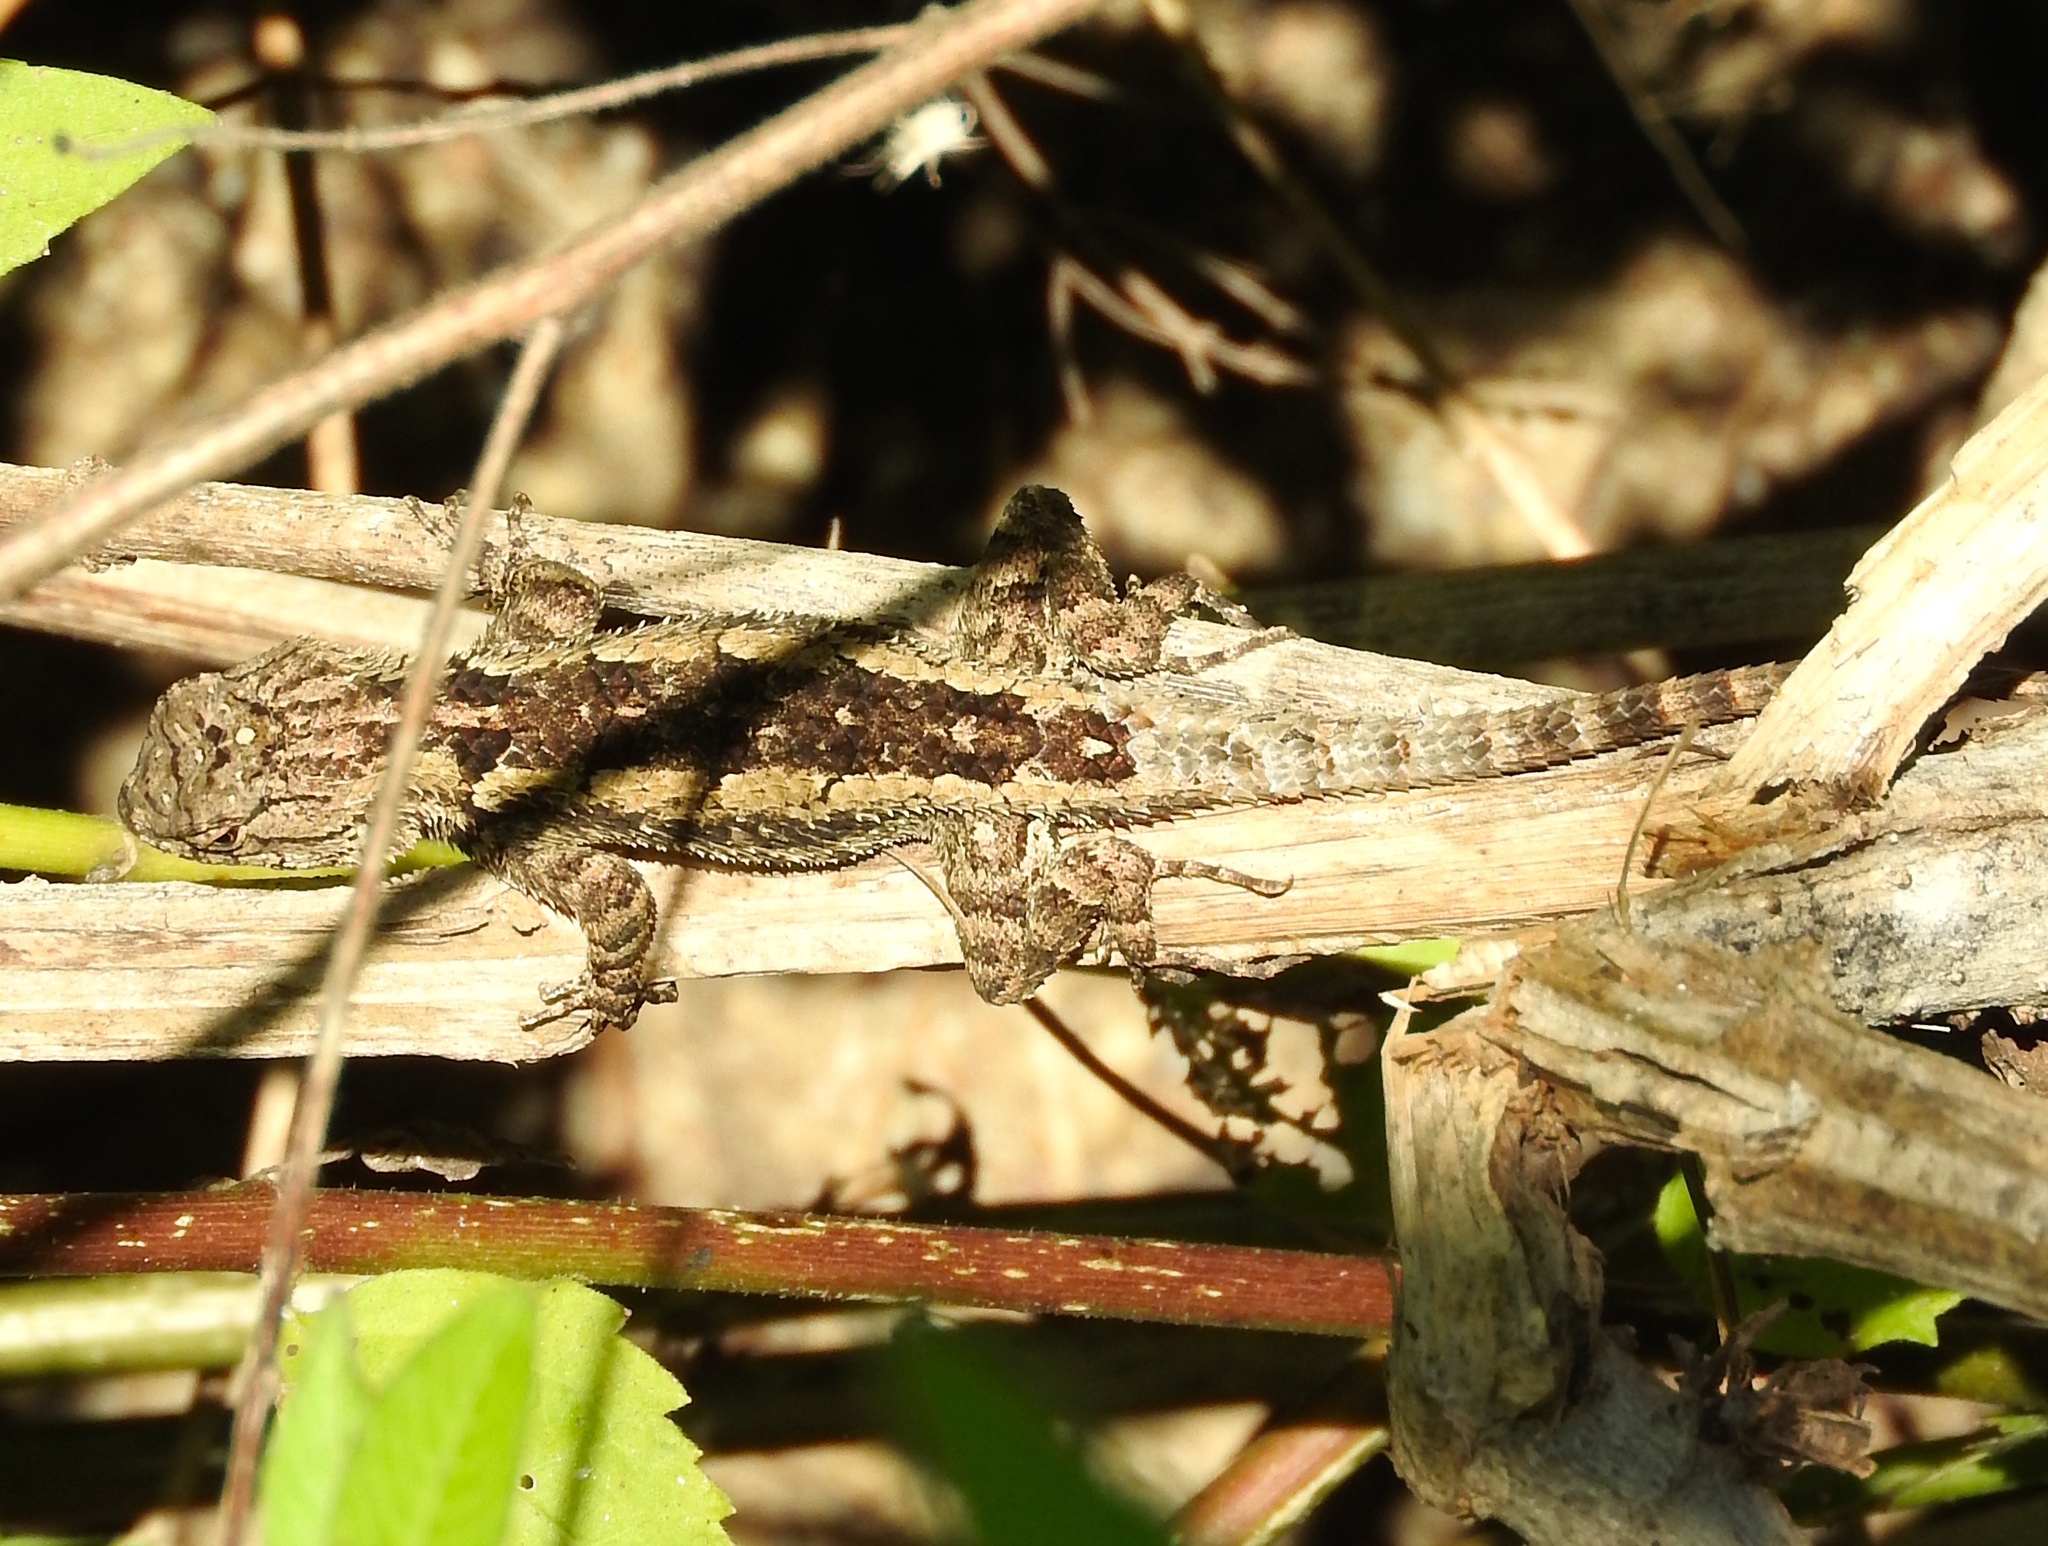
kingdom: Animalia
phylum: Chordata
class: Squamata
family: Phrynosomatidae
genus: Sceloporus
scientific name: Sceloporus
